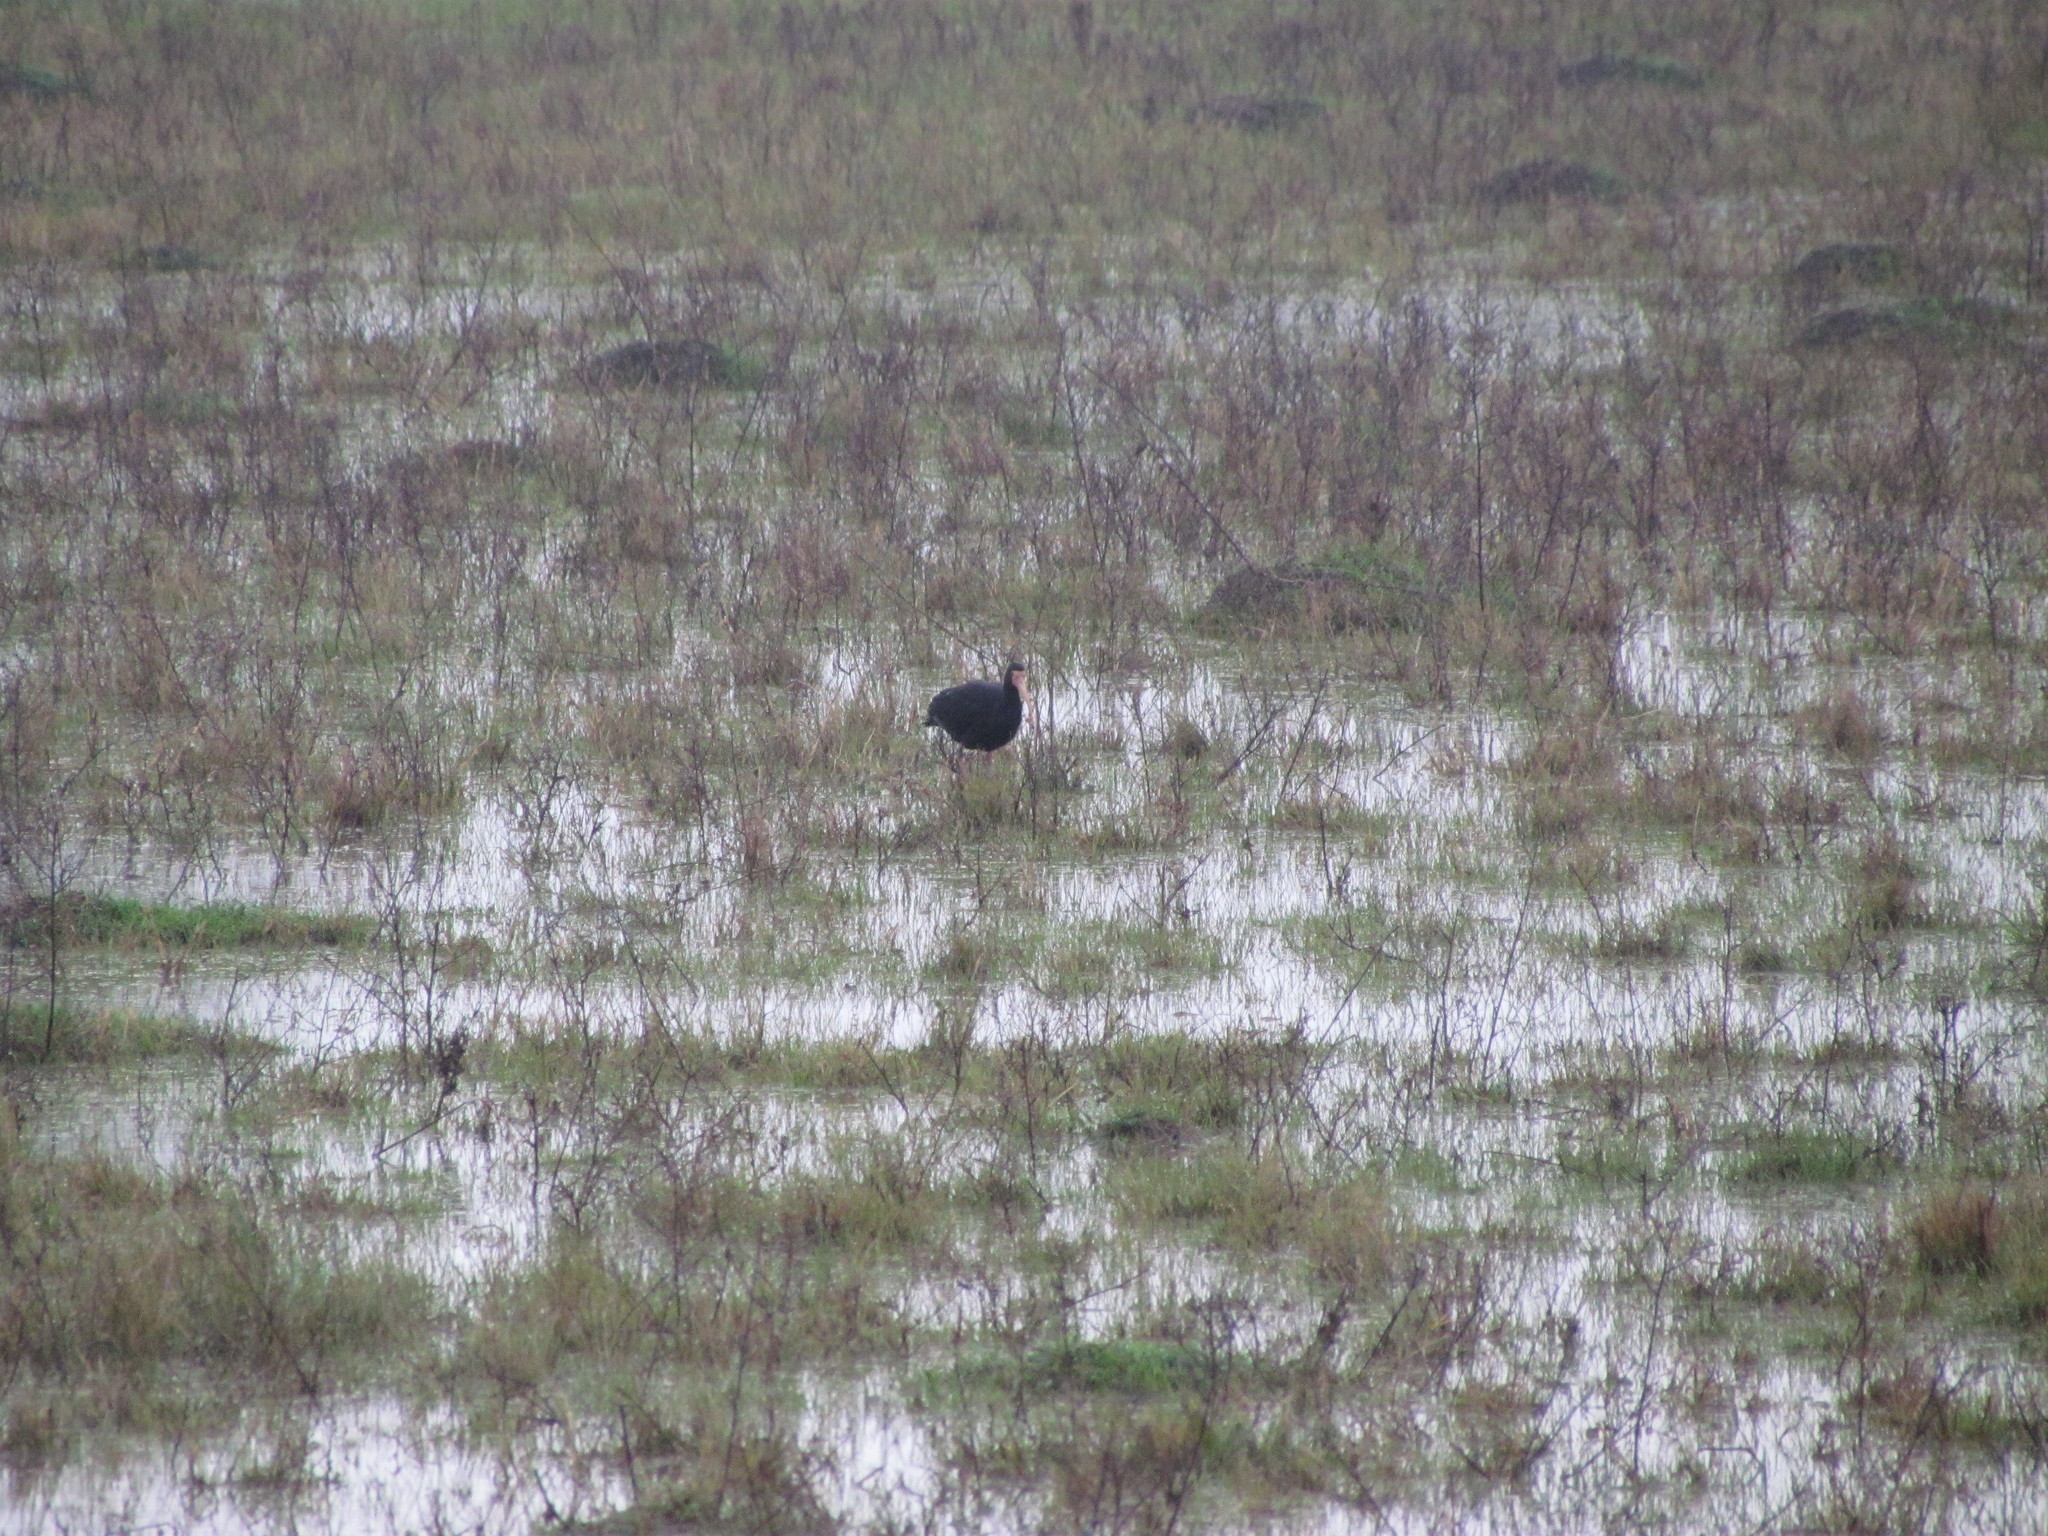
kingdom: Animalia
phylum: Chordata
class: Aves
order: Pelecaniformes
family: Threskiornithidae
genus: Phimosus
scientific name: Phimosus infuscatus
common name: Bare-faced ibis
